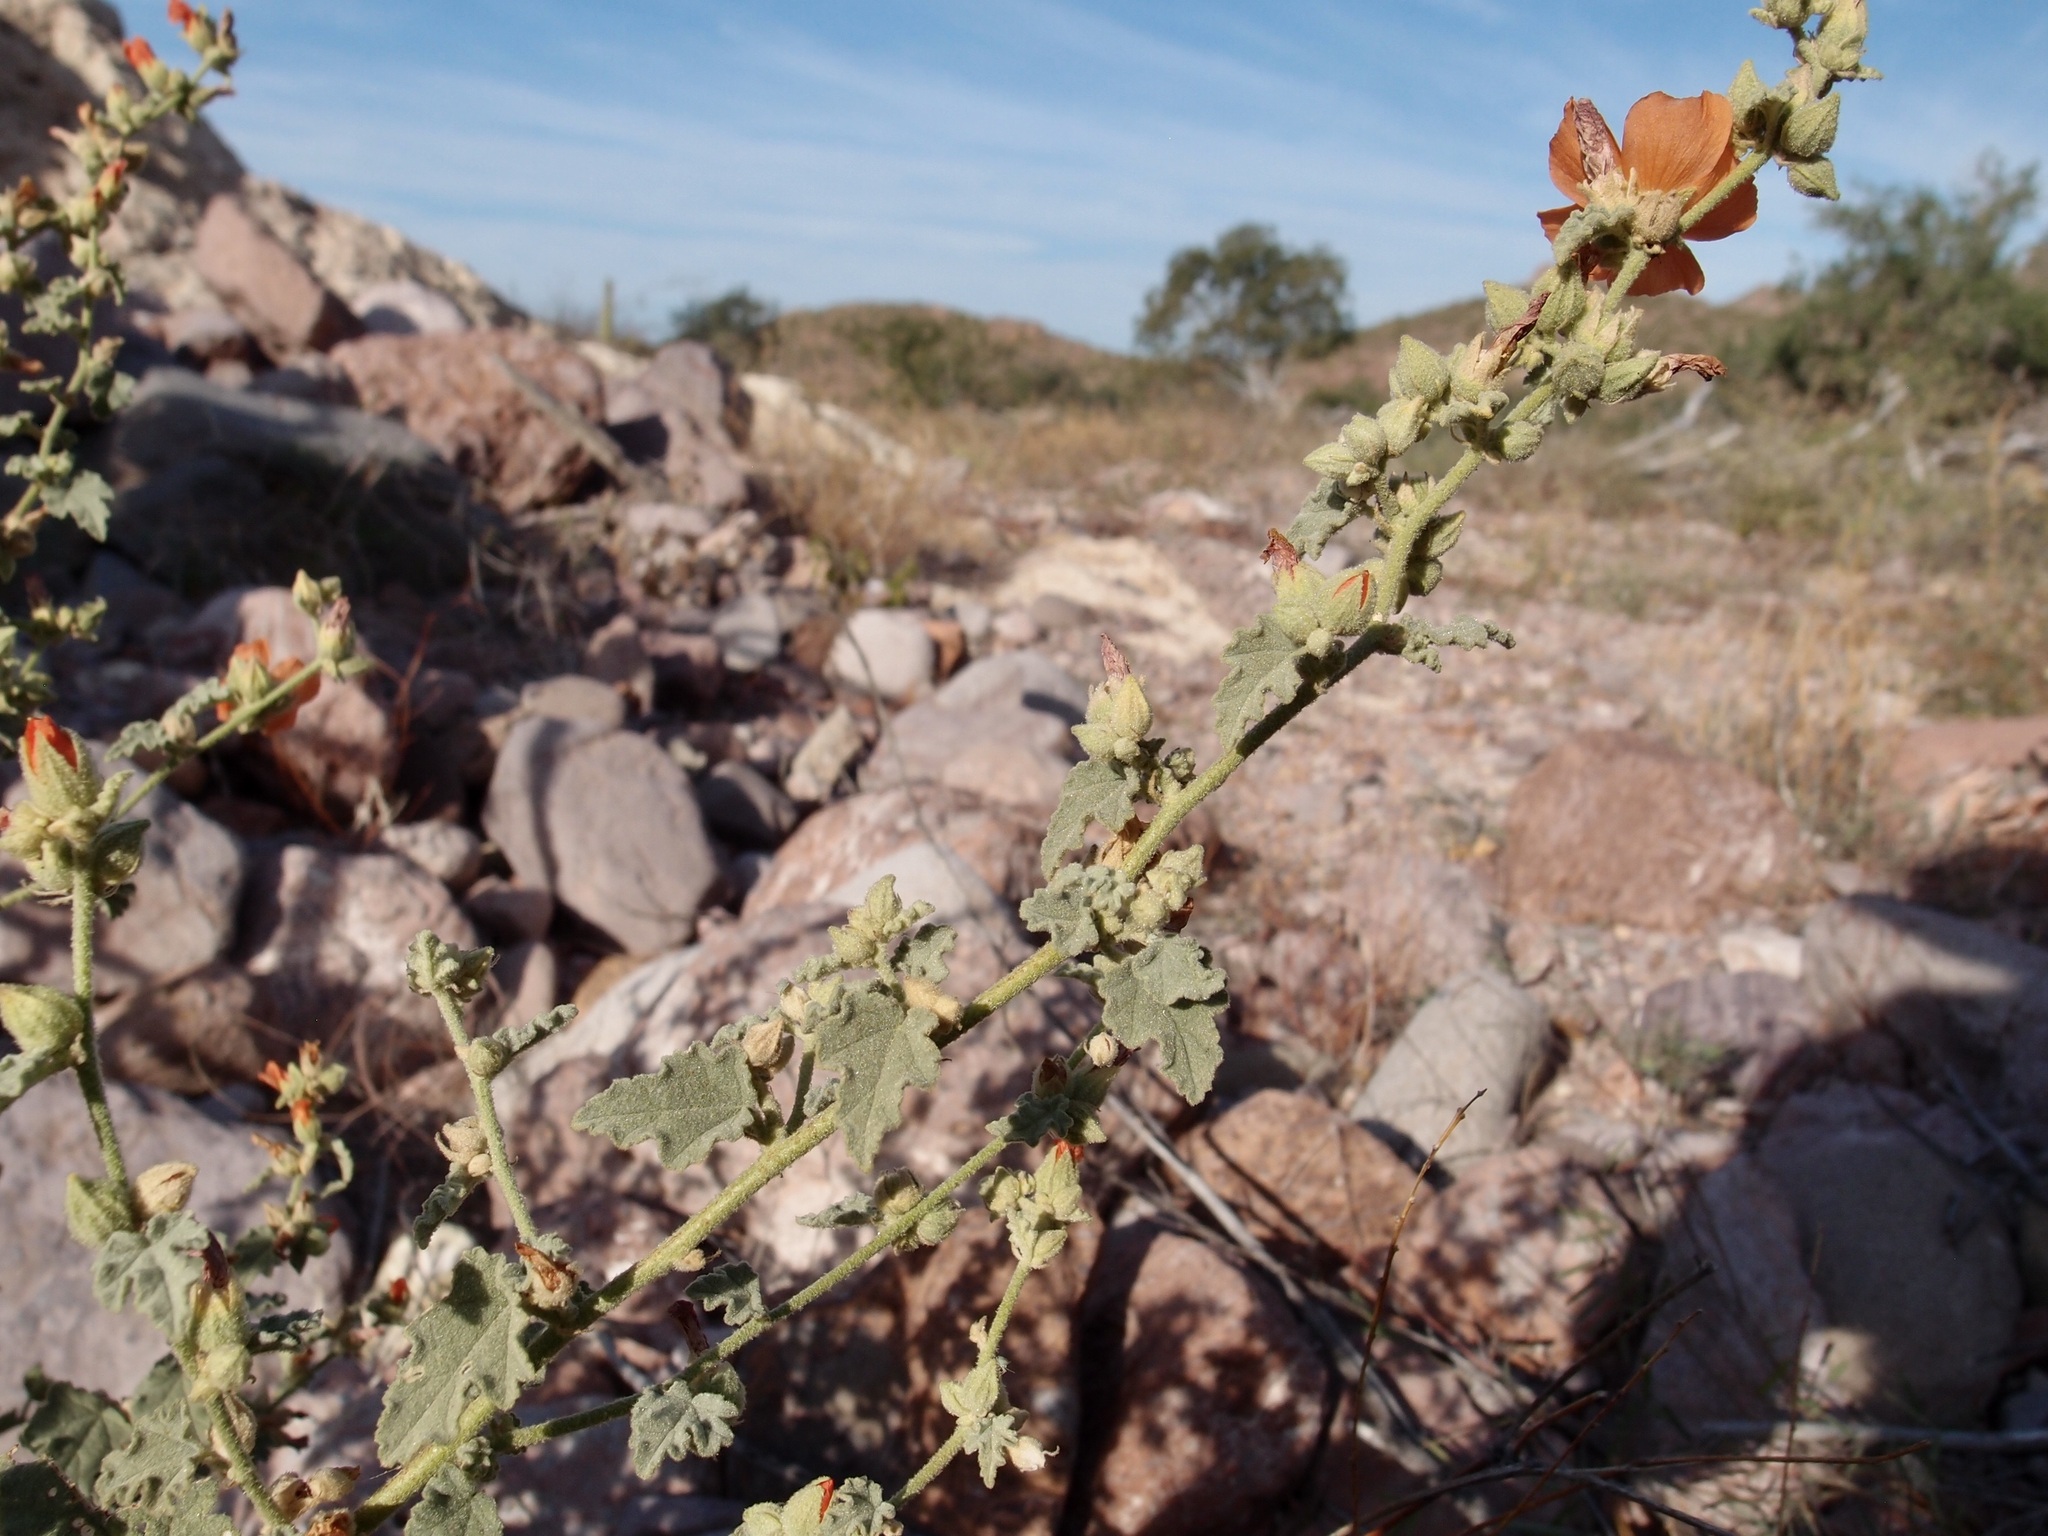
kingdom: Plantae
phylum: Tracheophyta
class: Magnoliopsida
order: Malvales
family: Malvaceae
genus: Sphaeralcea
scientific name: Sphaeralcea ambigua
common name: Apricot globe-mallow
